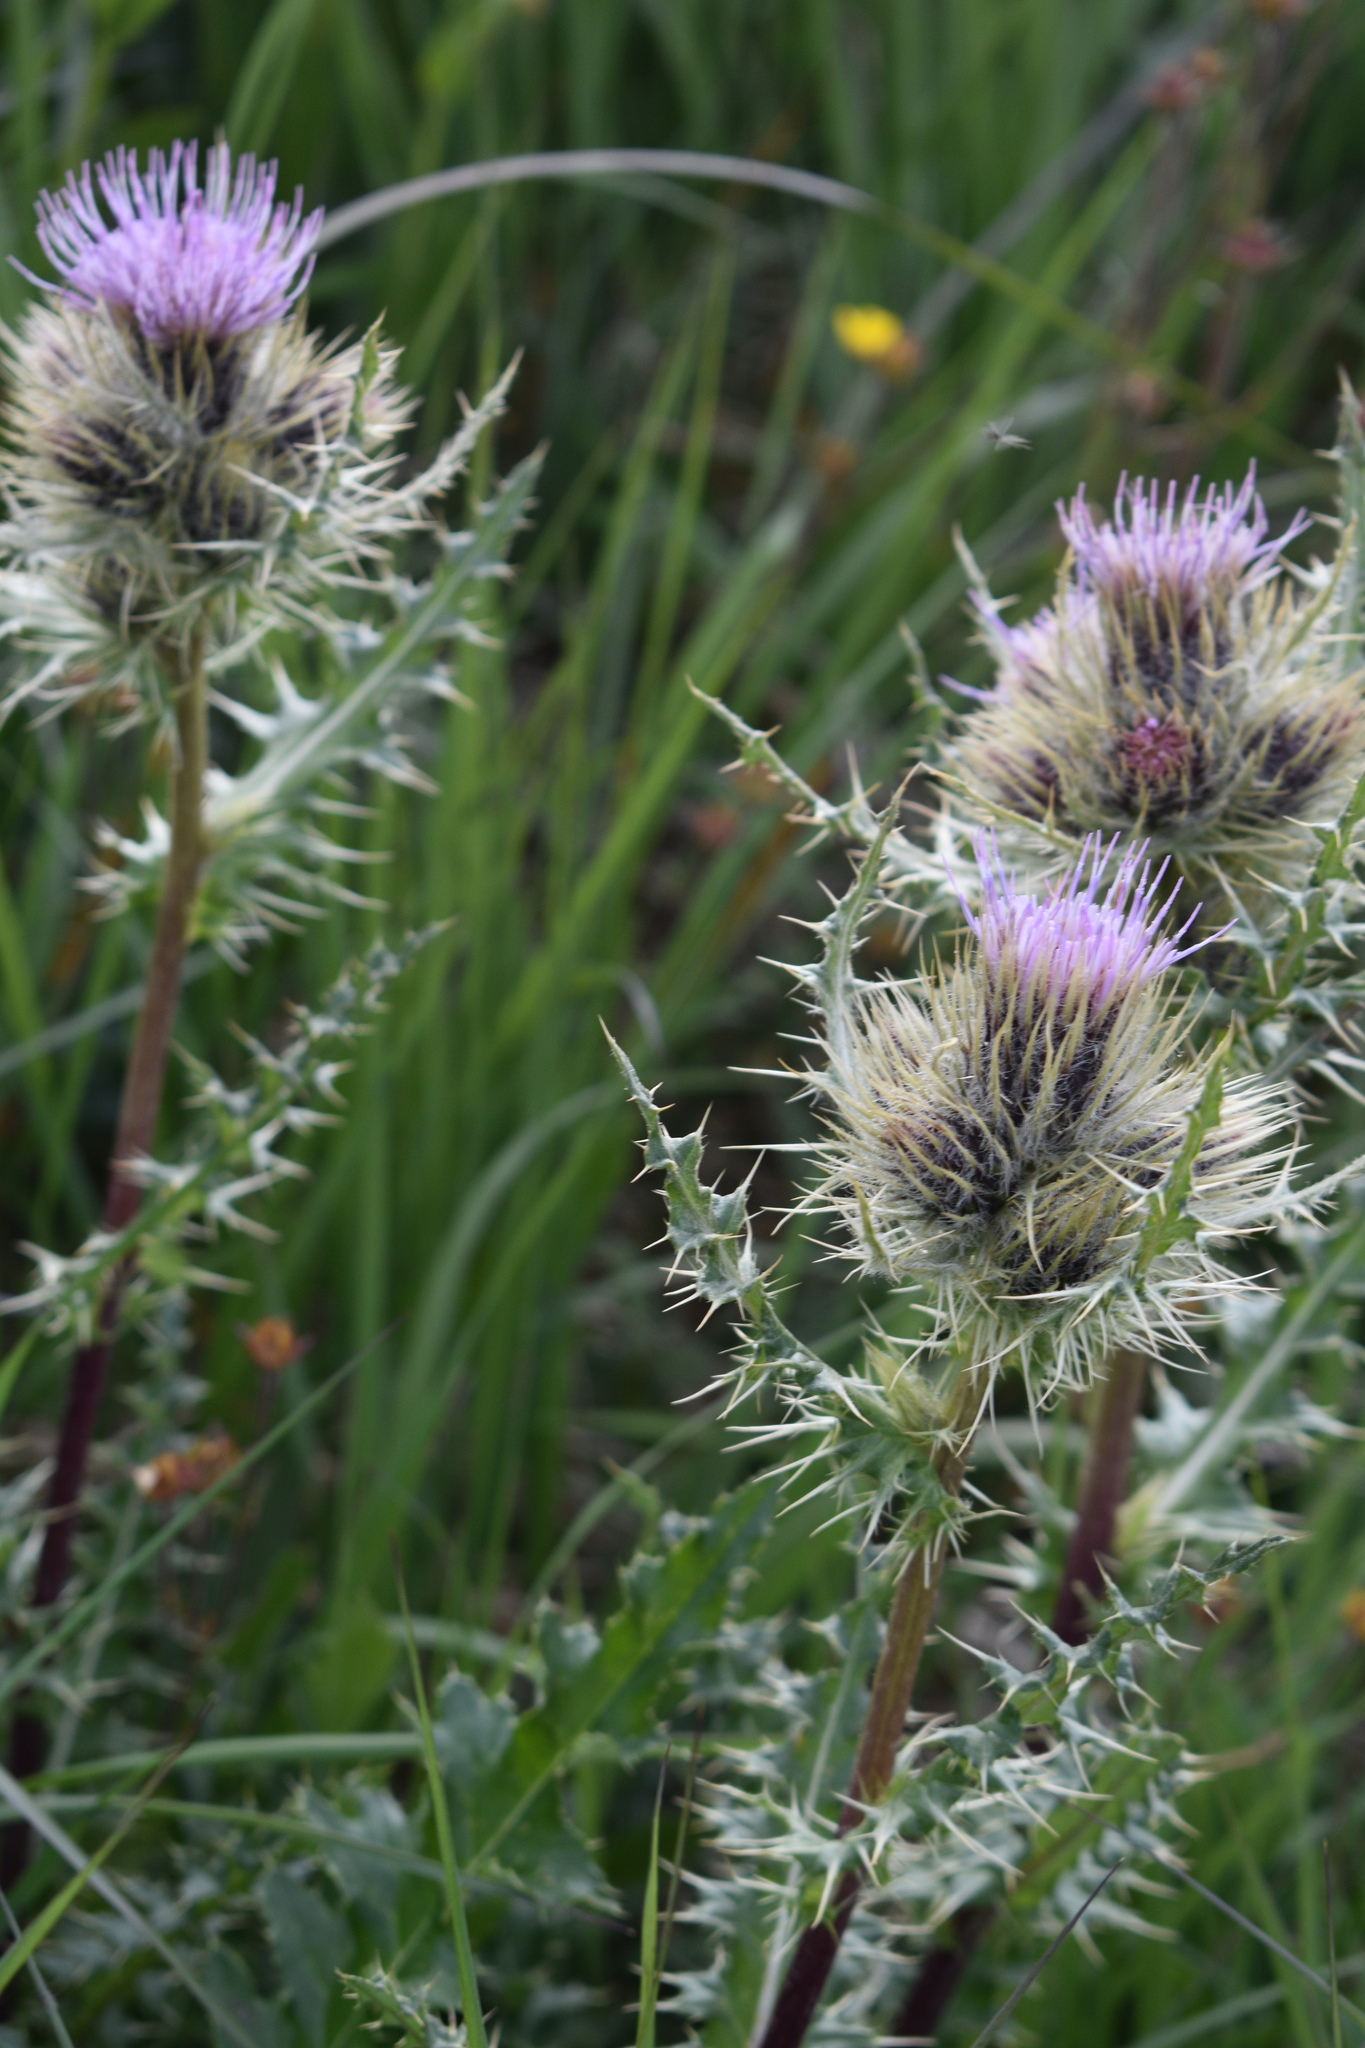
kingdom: Plantae
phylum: Tracheophyta
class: Magnoliopsida
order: Asterales
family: Asteraceae
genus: Cirsium
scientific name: Cirsium griseum
